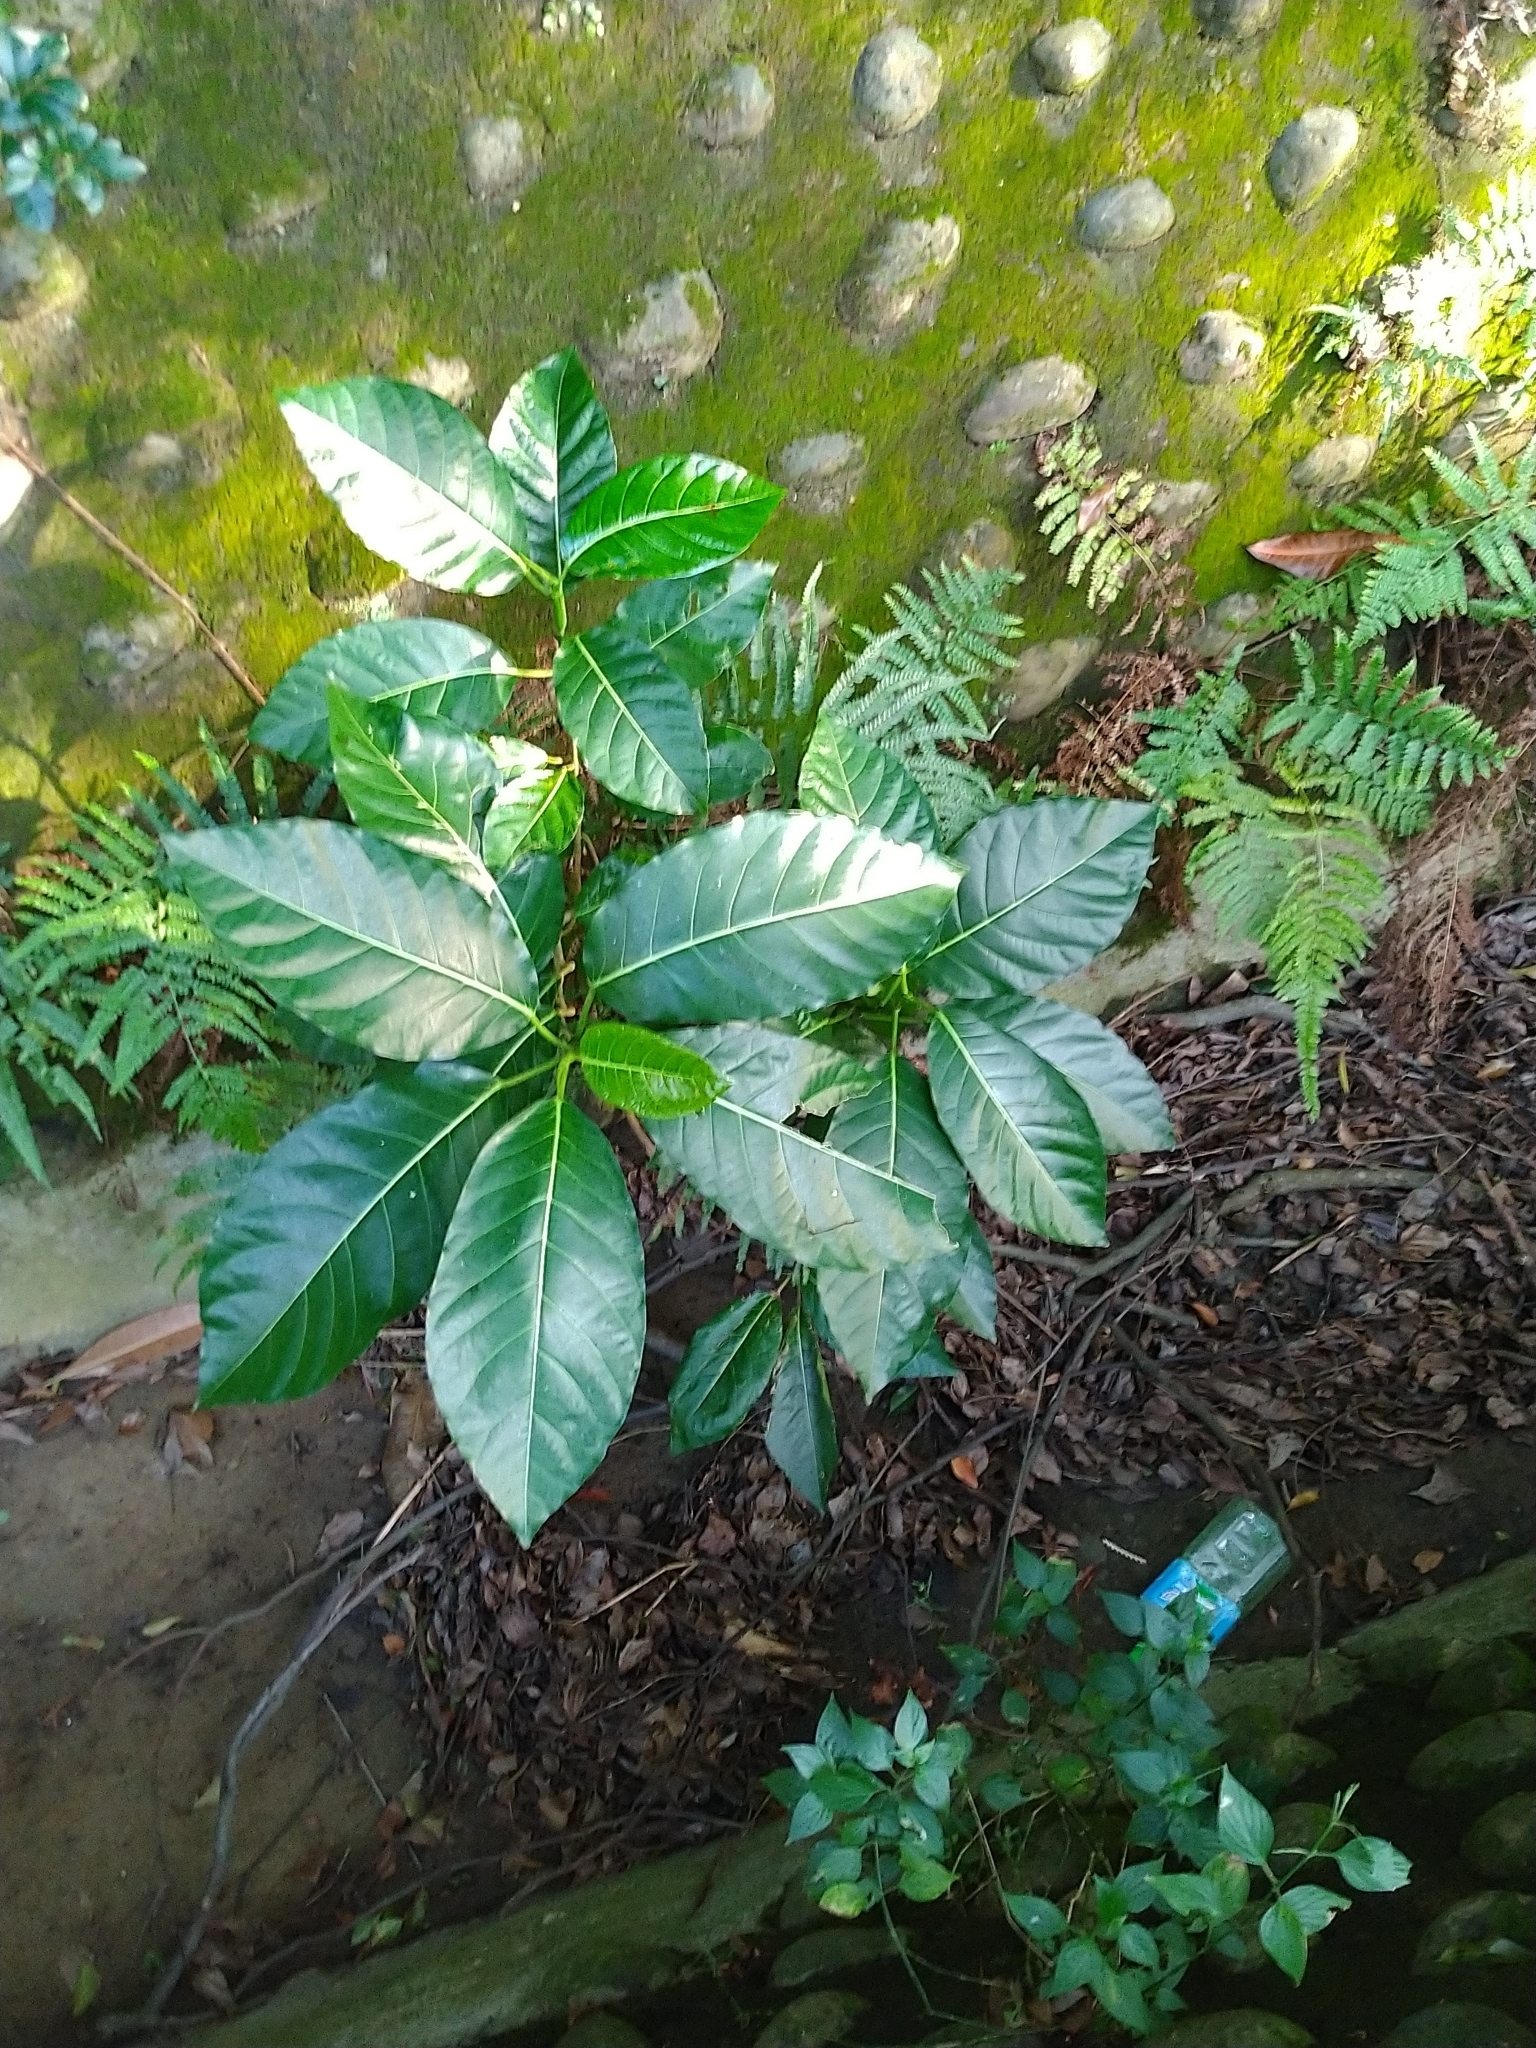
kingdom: Plantae
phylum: Tracheophyta
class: Magnoliopsida
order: Rosales
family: Moraceae
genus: Ficus
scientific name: Ficus septica
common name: Septic fig
